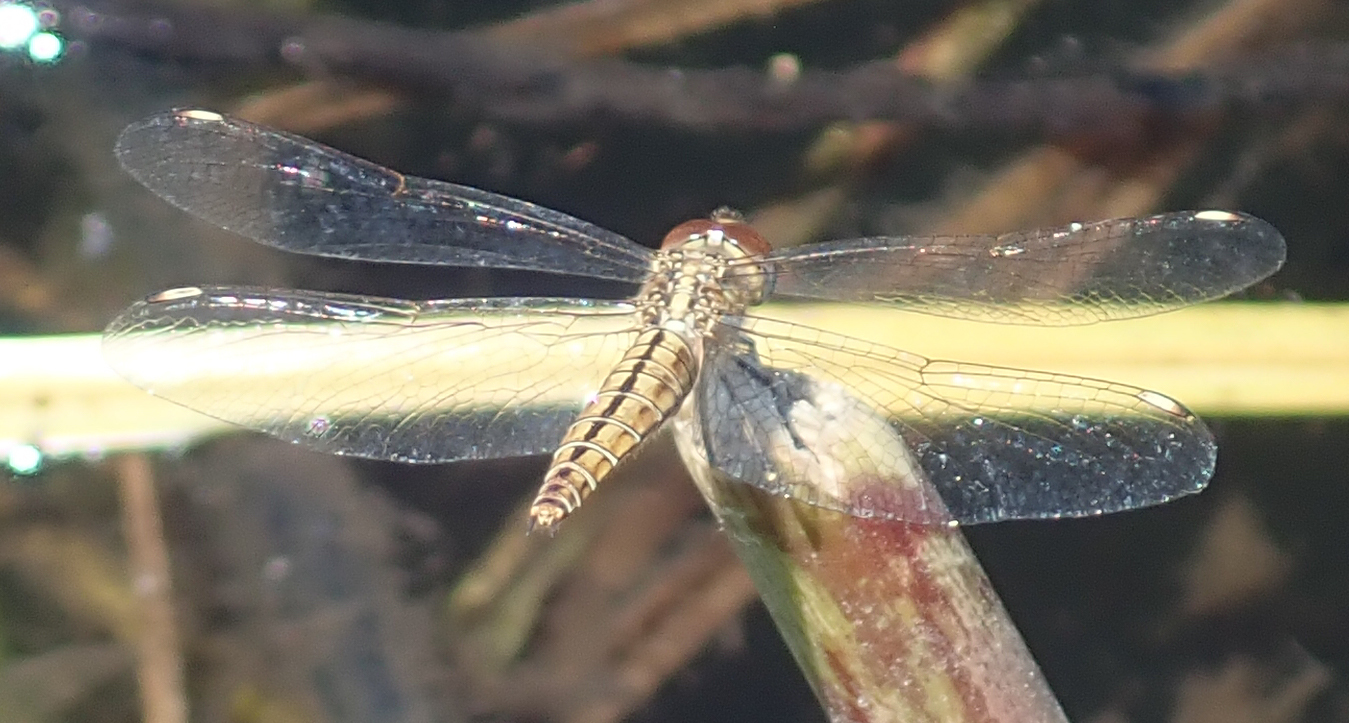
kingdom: Animalia
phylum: Arthropoda
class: Insecta
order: Odonata
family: Libellulidae
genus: Brachythemis
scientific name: Brachythemis lacustris
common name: Red groundling
